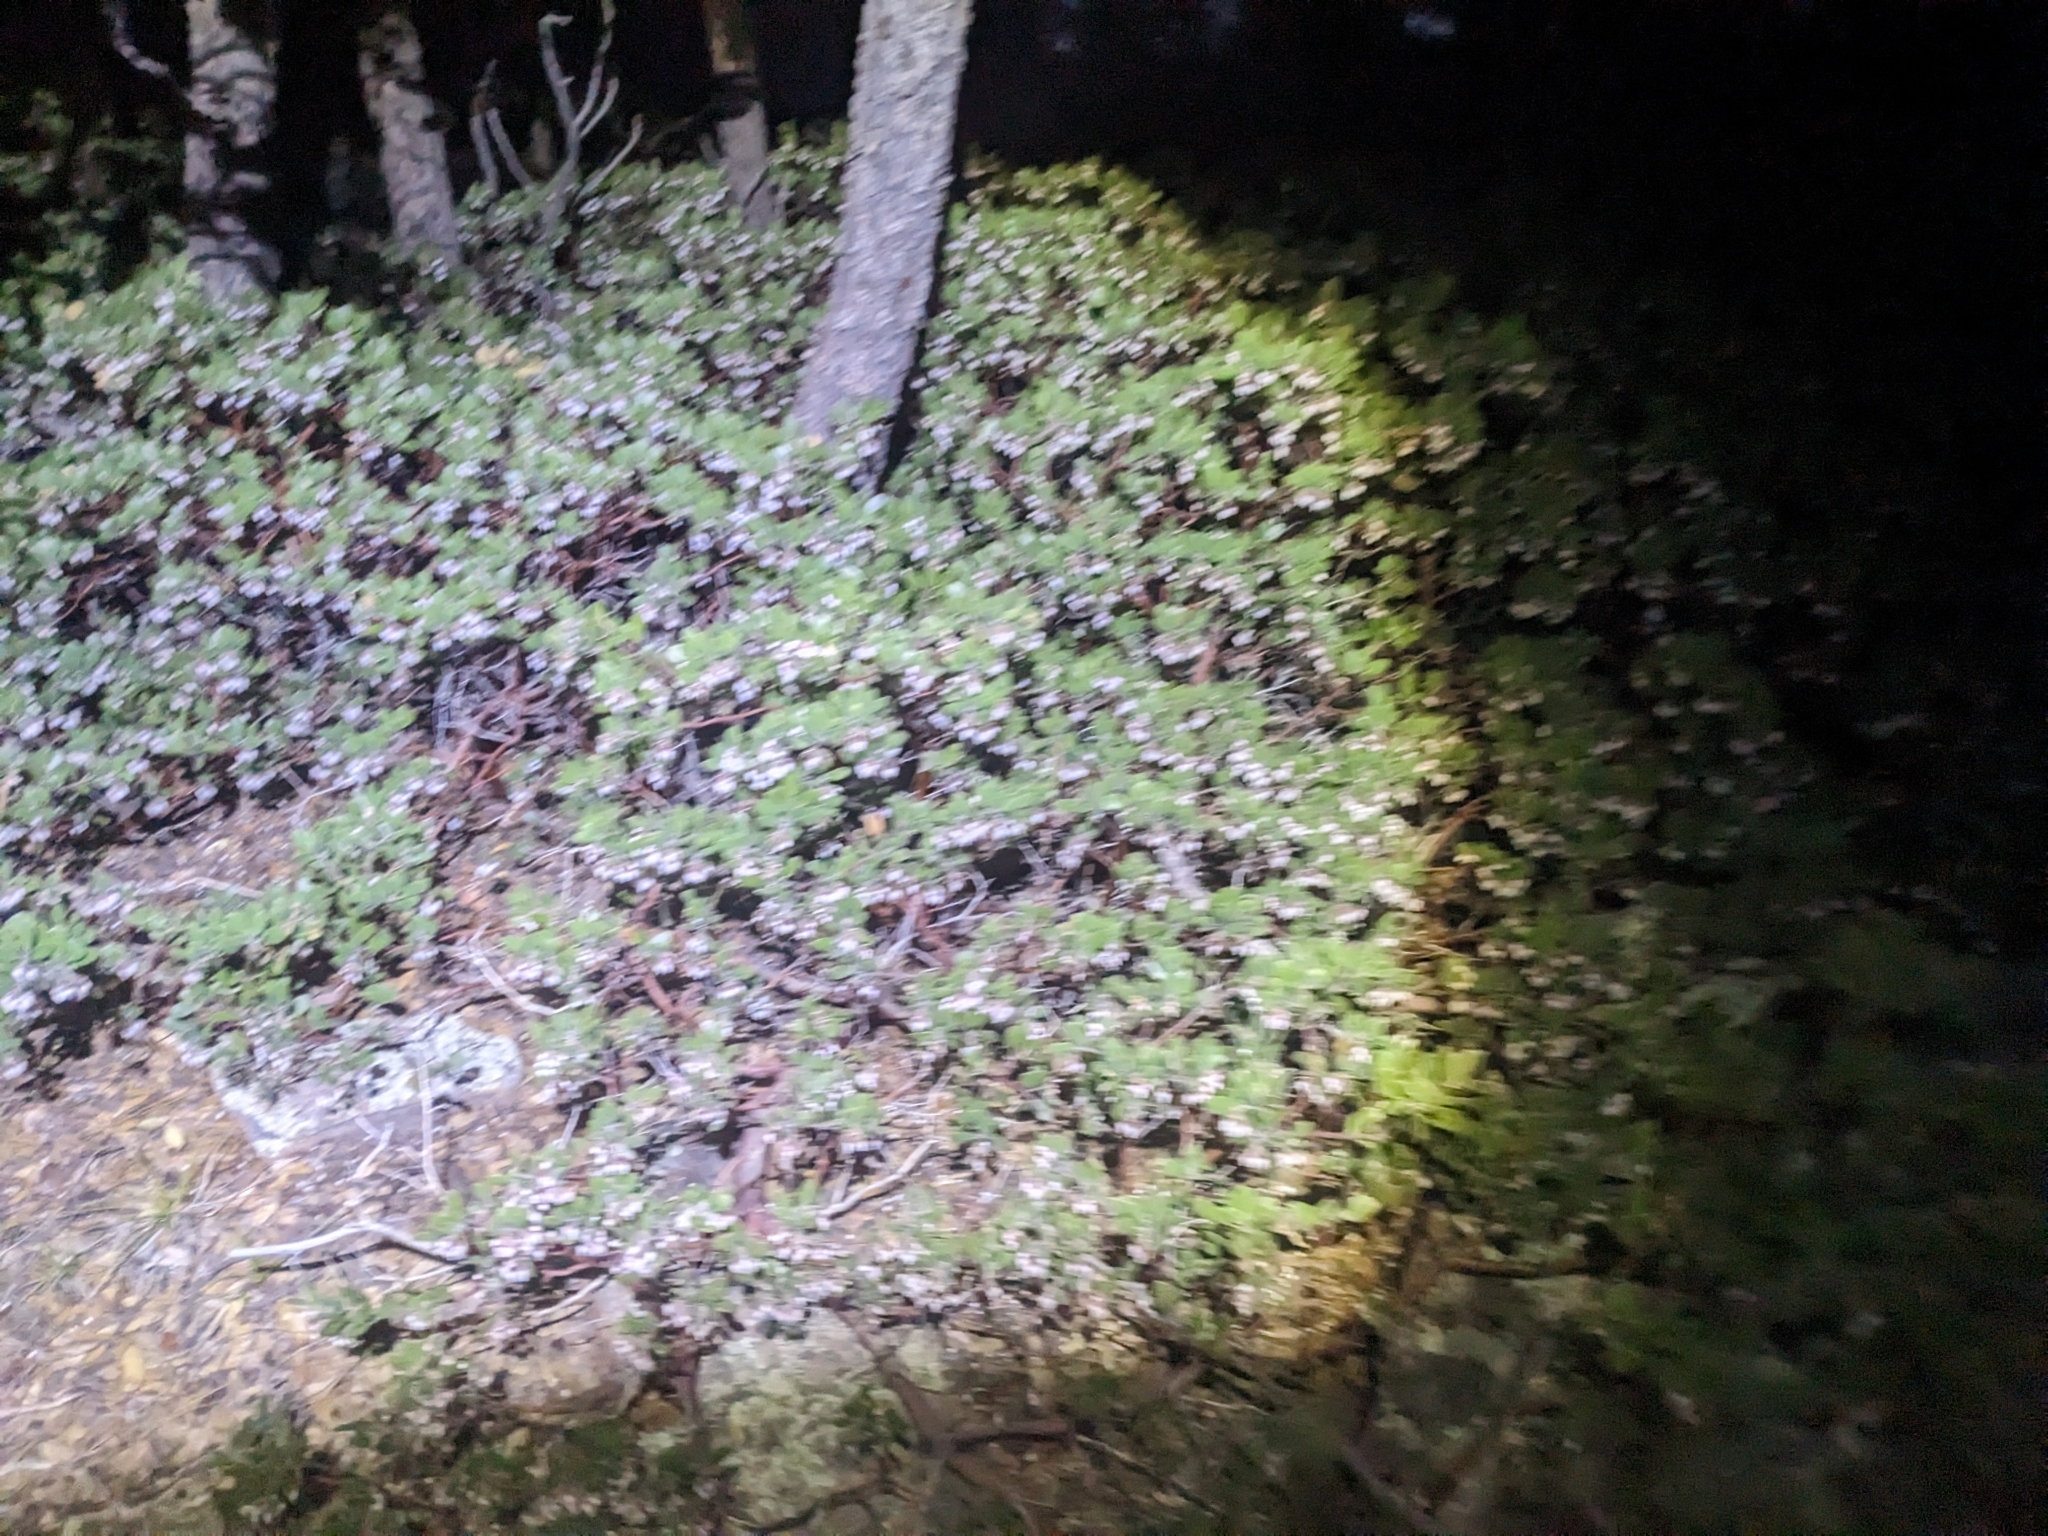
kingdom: Plantae
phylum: Tracheophyta
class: Magnoliopsida
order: Ericales
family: Ericaceae
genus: Arctostaphylos
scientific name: Arctostaphylos pungens
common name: Mexican manzanita
